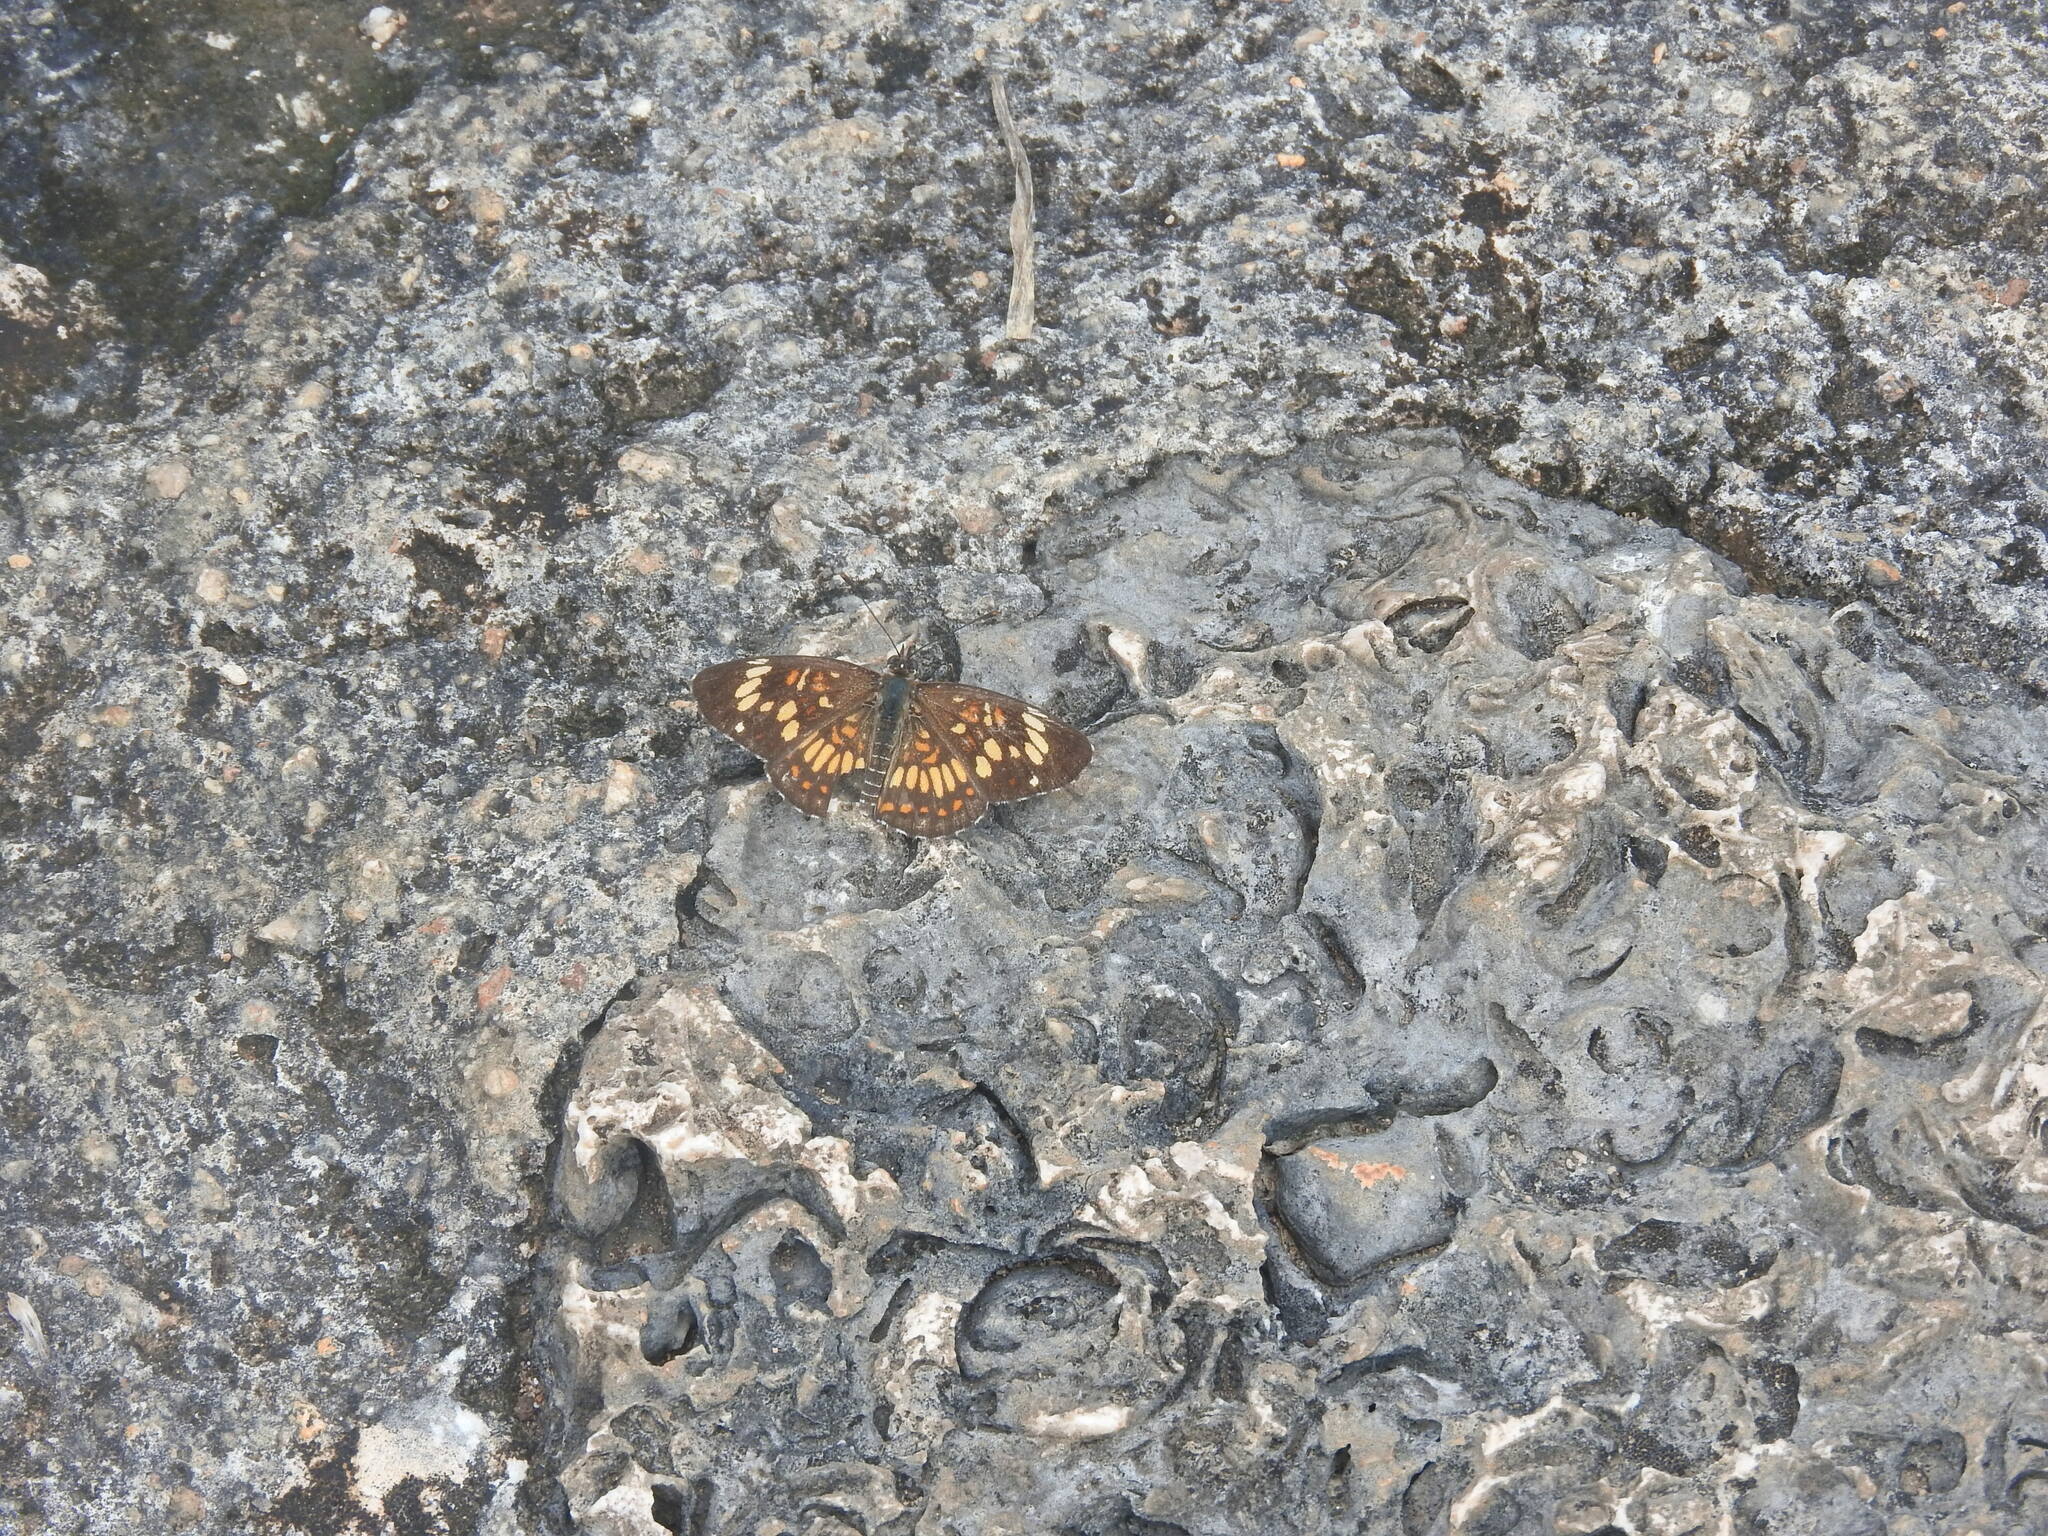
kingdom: Animalia
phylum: Arthropoda
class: Insecta
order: Lepidoptera
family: Nymphalidae
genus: Thessalia
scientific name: Thessalia theona
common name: Nymphalid moth
